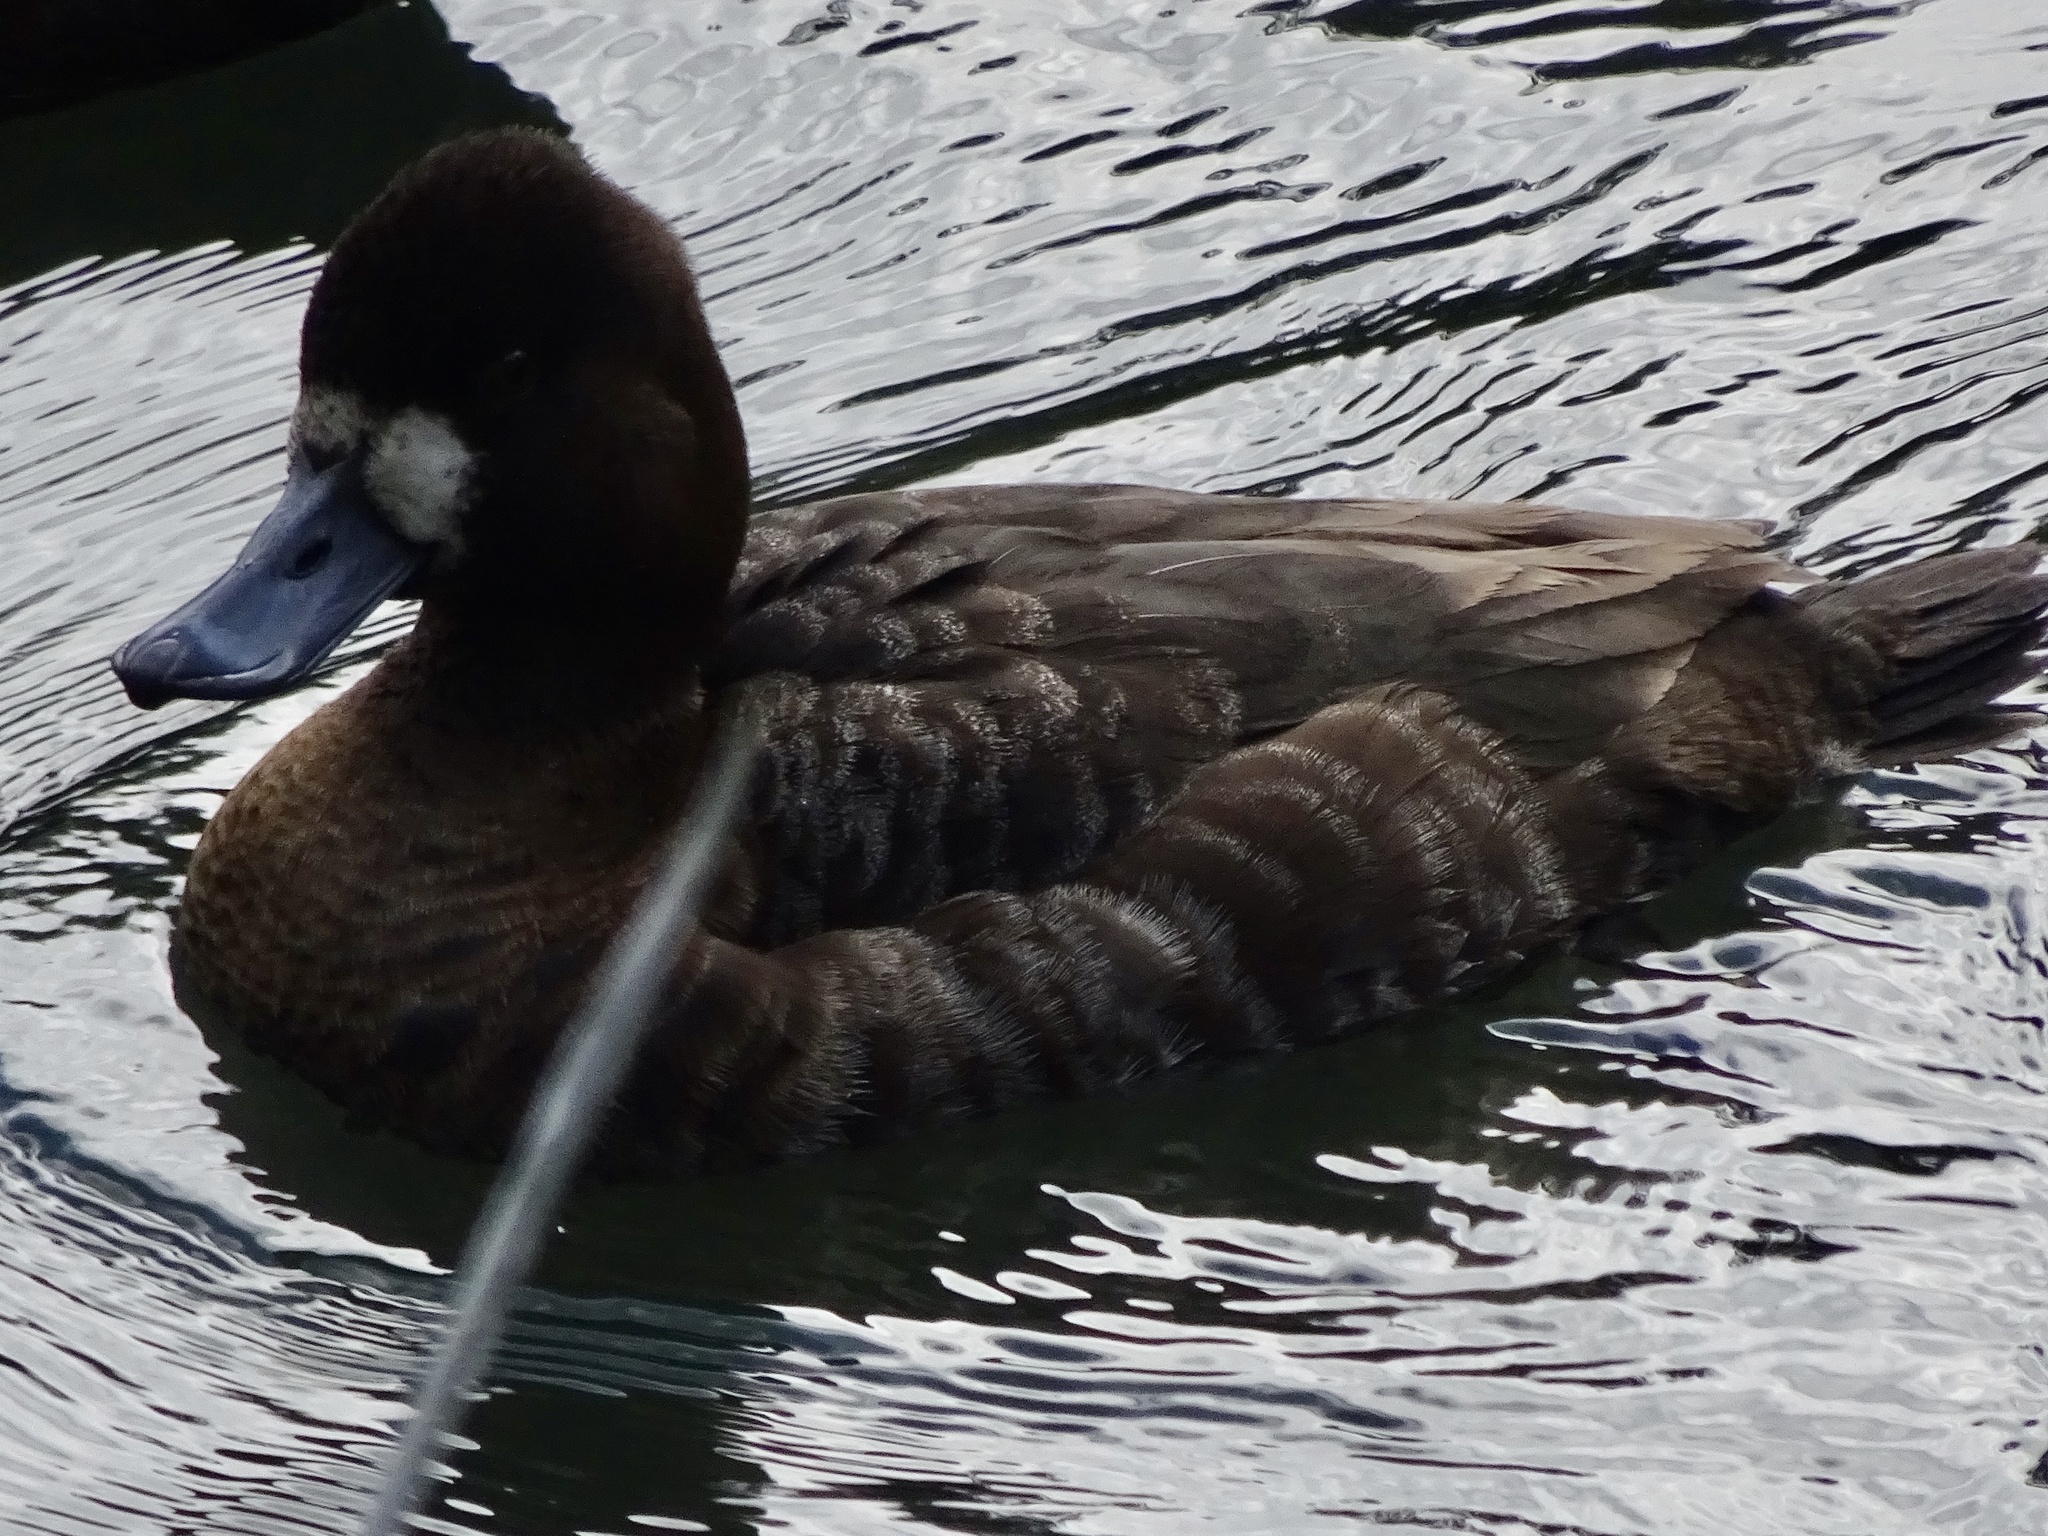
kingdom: Animalia
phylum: Chordata
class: Aves
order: Anseriformes
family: Anatidae
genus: Aythya
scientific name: Aythya affinis
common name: Lesser scaup
